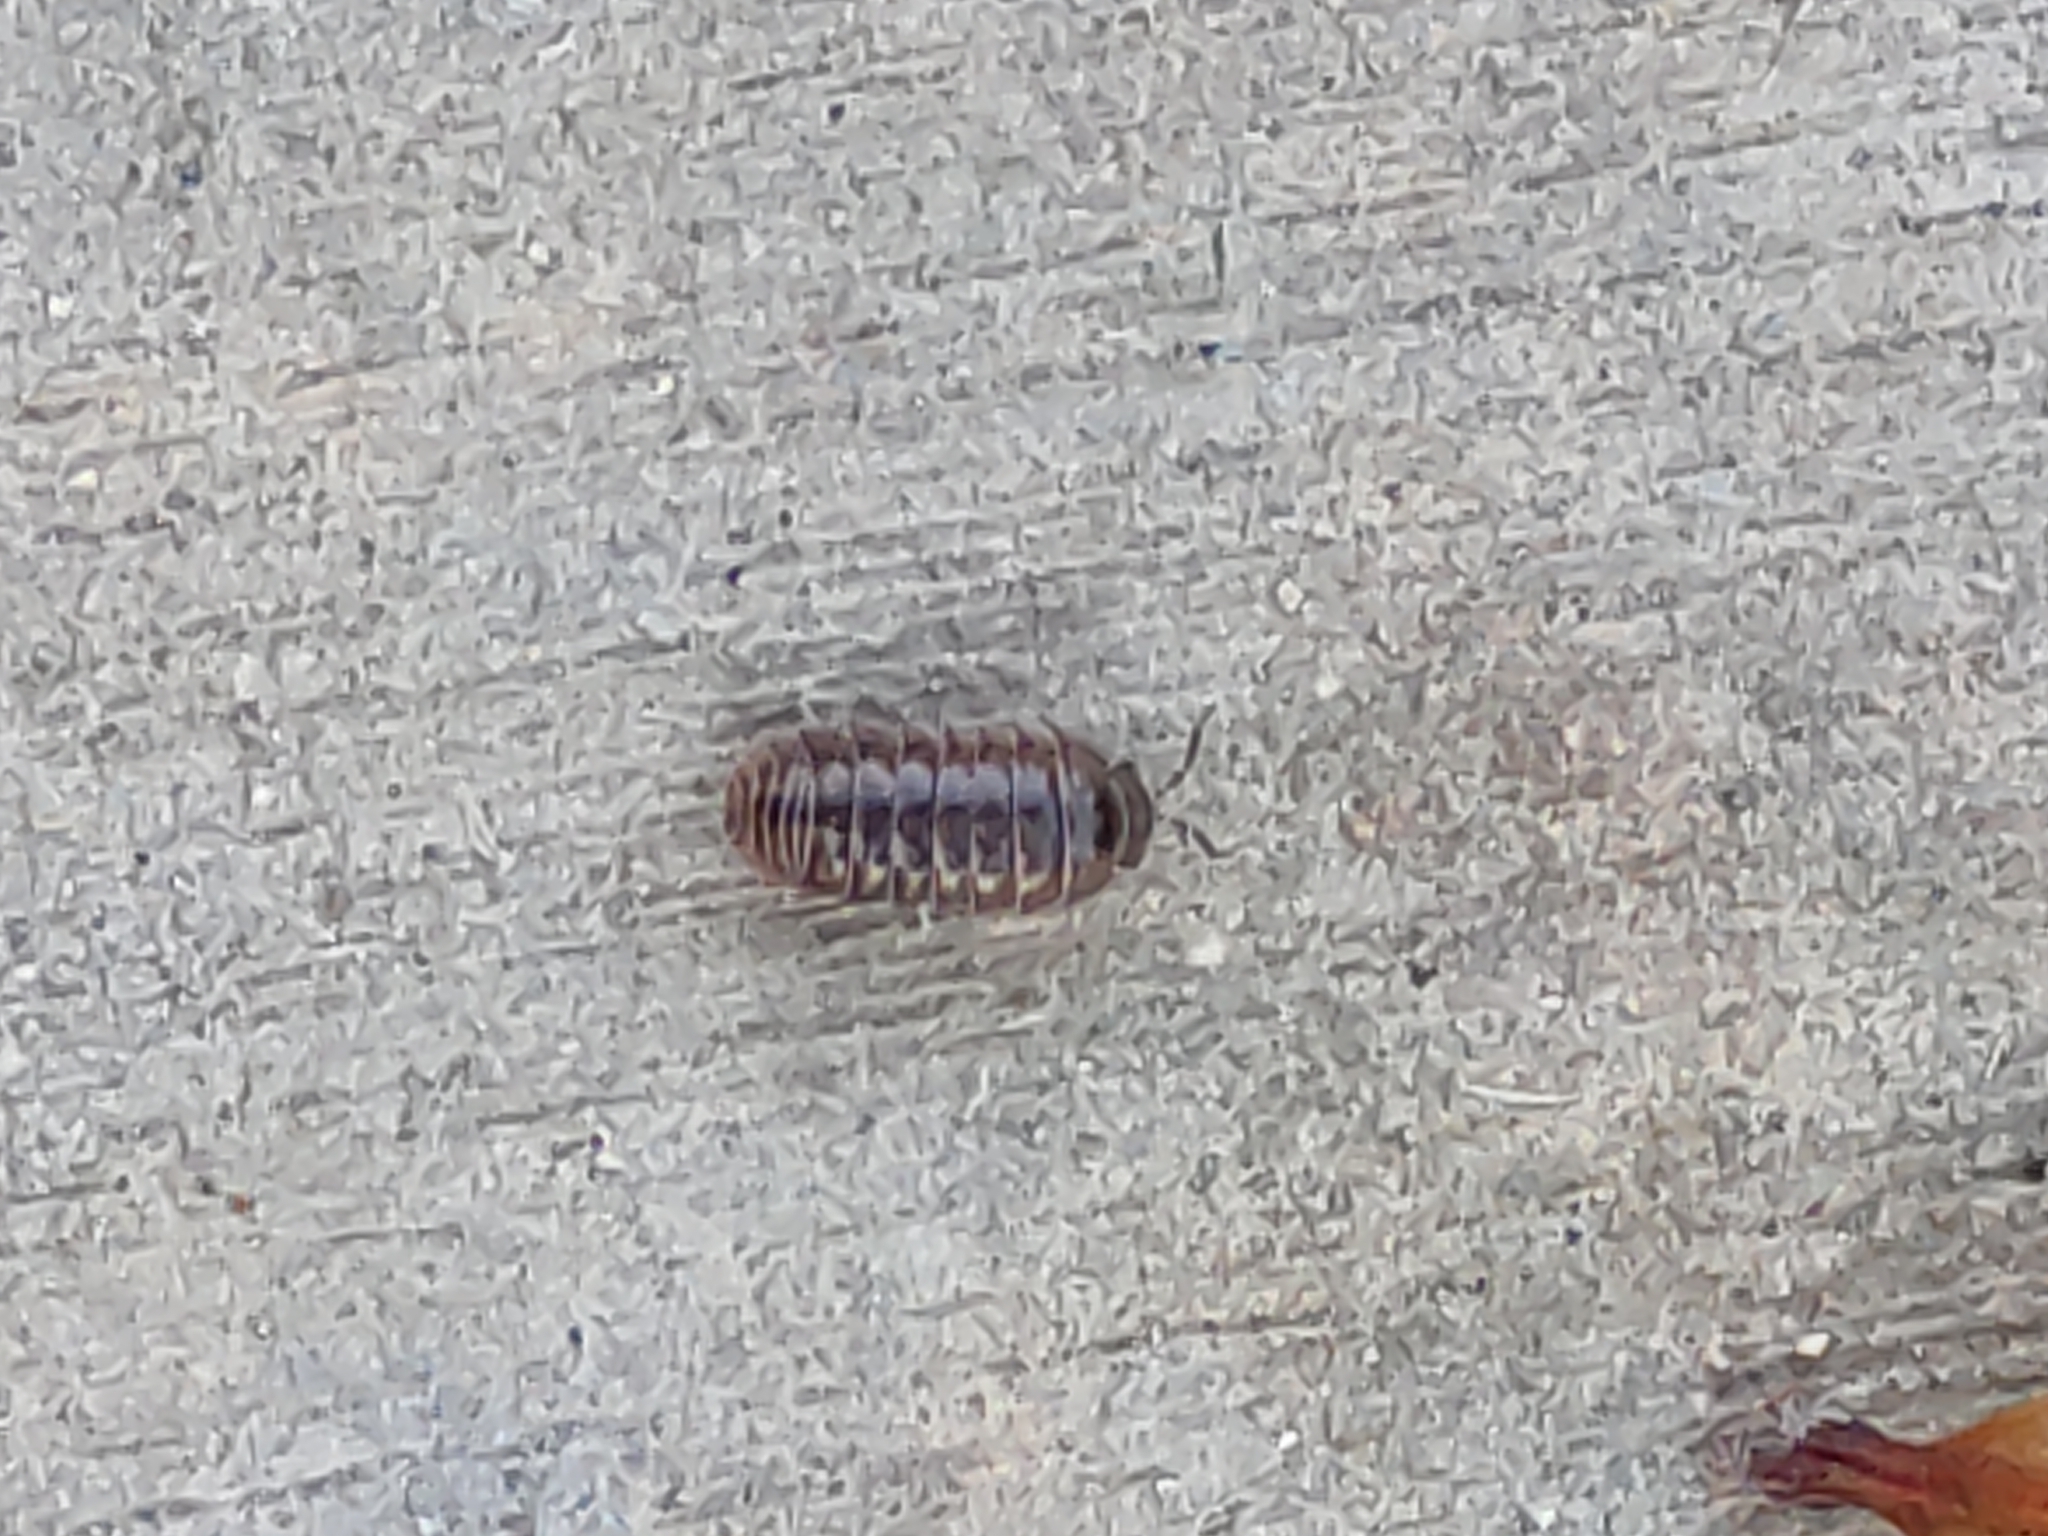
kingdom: Animalia
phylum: Arthropoda
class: Malacostraca
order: Isopoda
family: Armadillidiidae
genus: Armadillidium
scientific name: Armadillidium vulgare
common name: Common pill woodlouse
